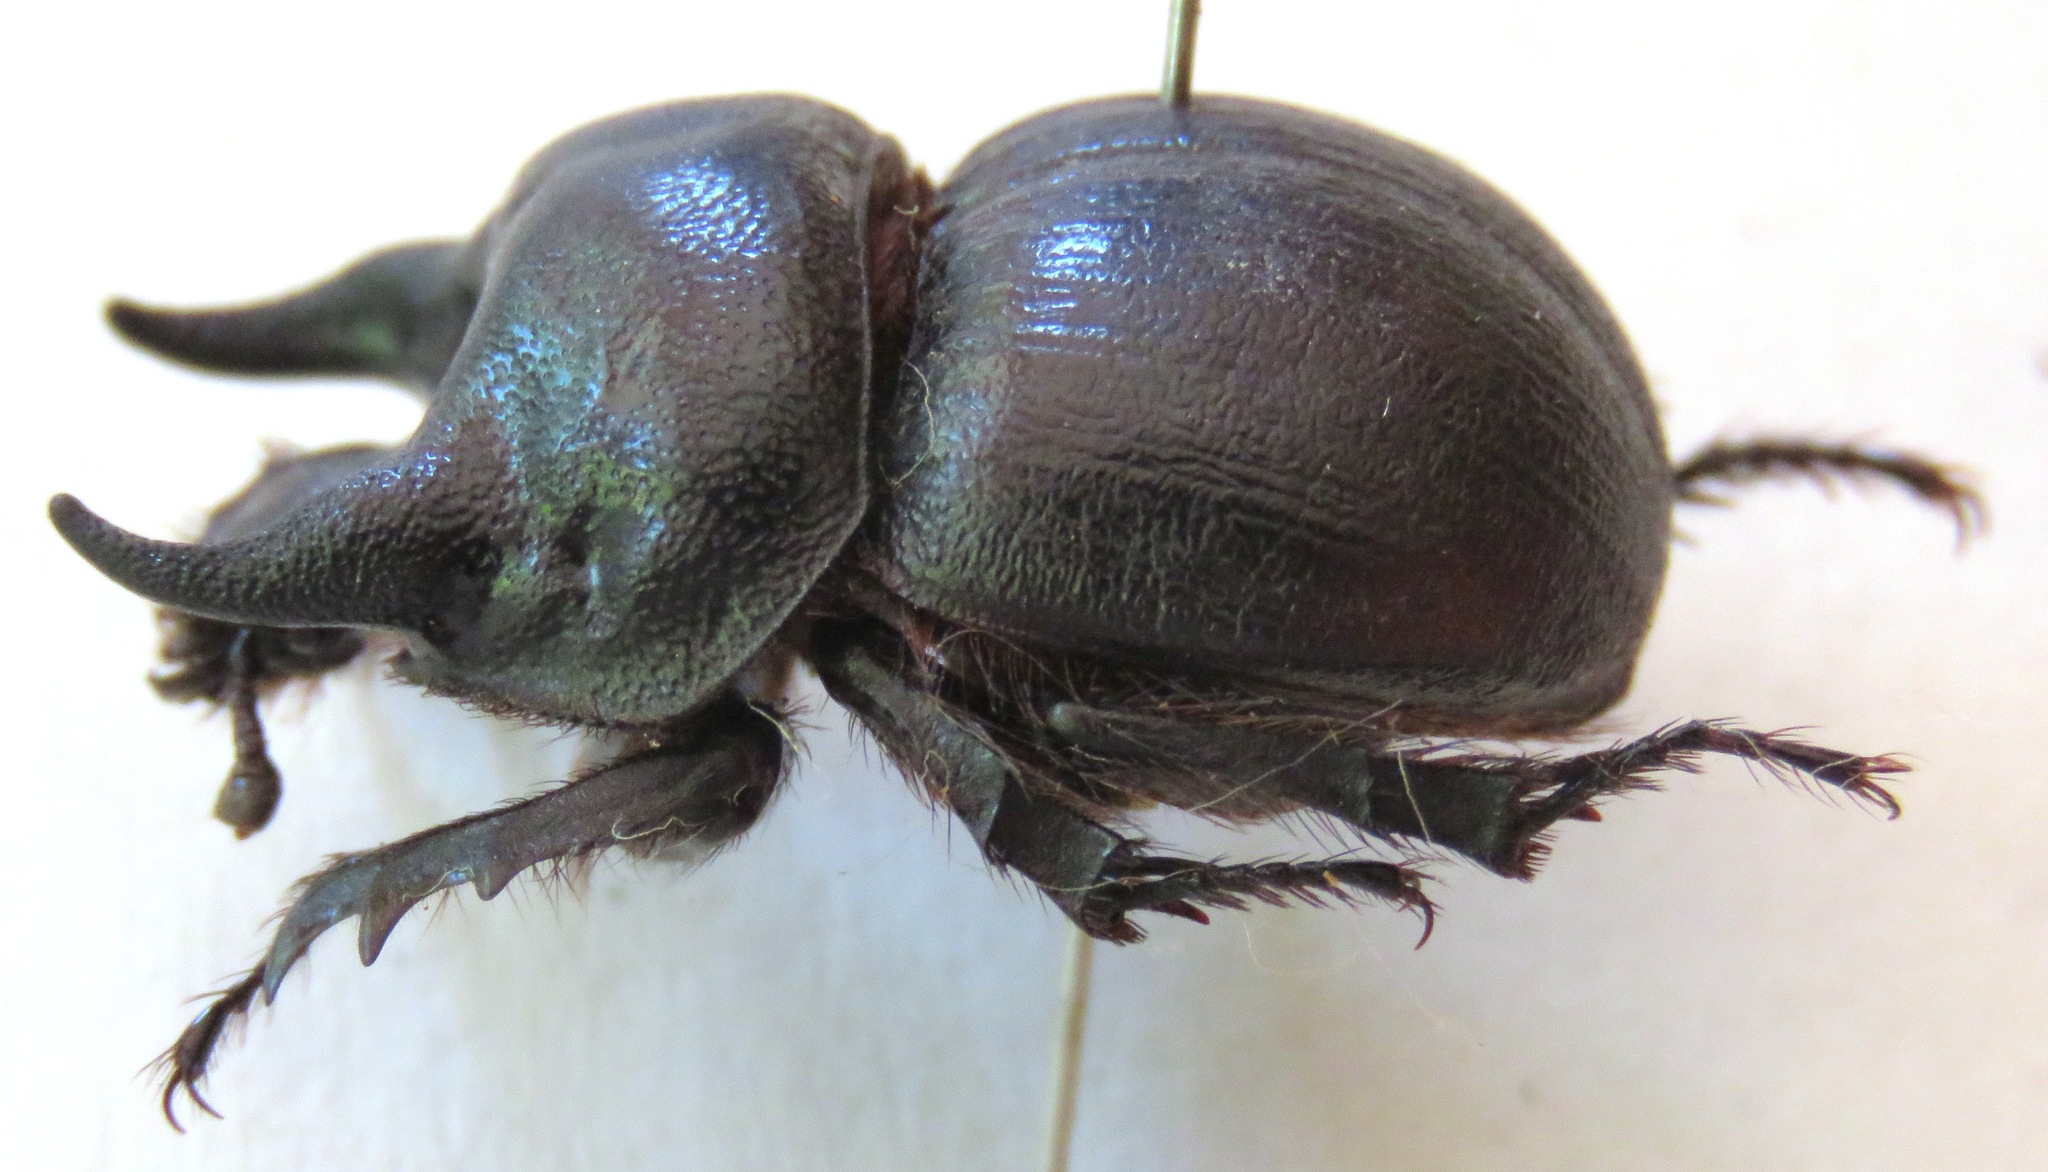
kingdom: Animalia
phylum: Arthropoda
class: Insecta
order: Coleoptera
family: Geotrupidae
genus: Taurocerastes
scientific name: Taurocerastes patagonicus
